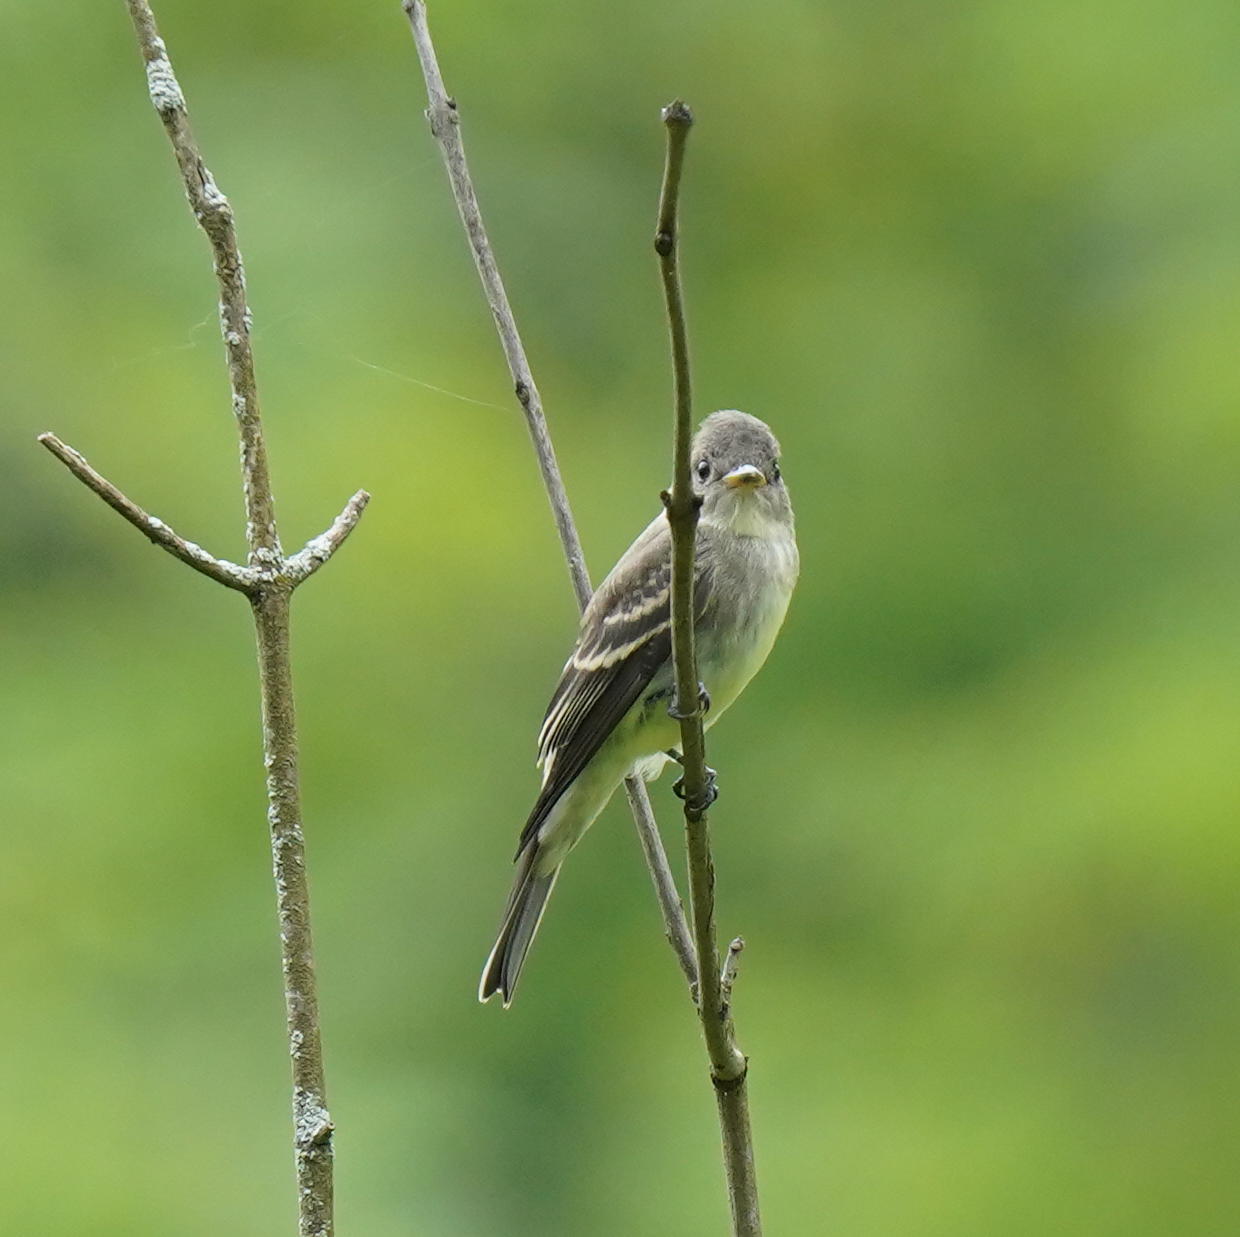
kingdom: Animalia
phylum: Chordata
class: Aves
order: Passeriformes
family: Tyrannidae
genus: Contopus
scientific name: Contopus virens
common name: Eastern wood-pewee
